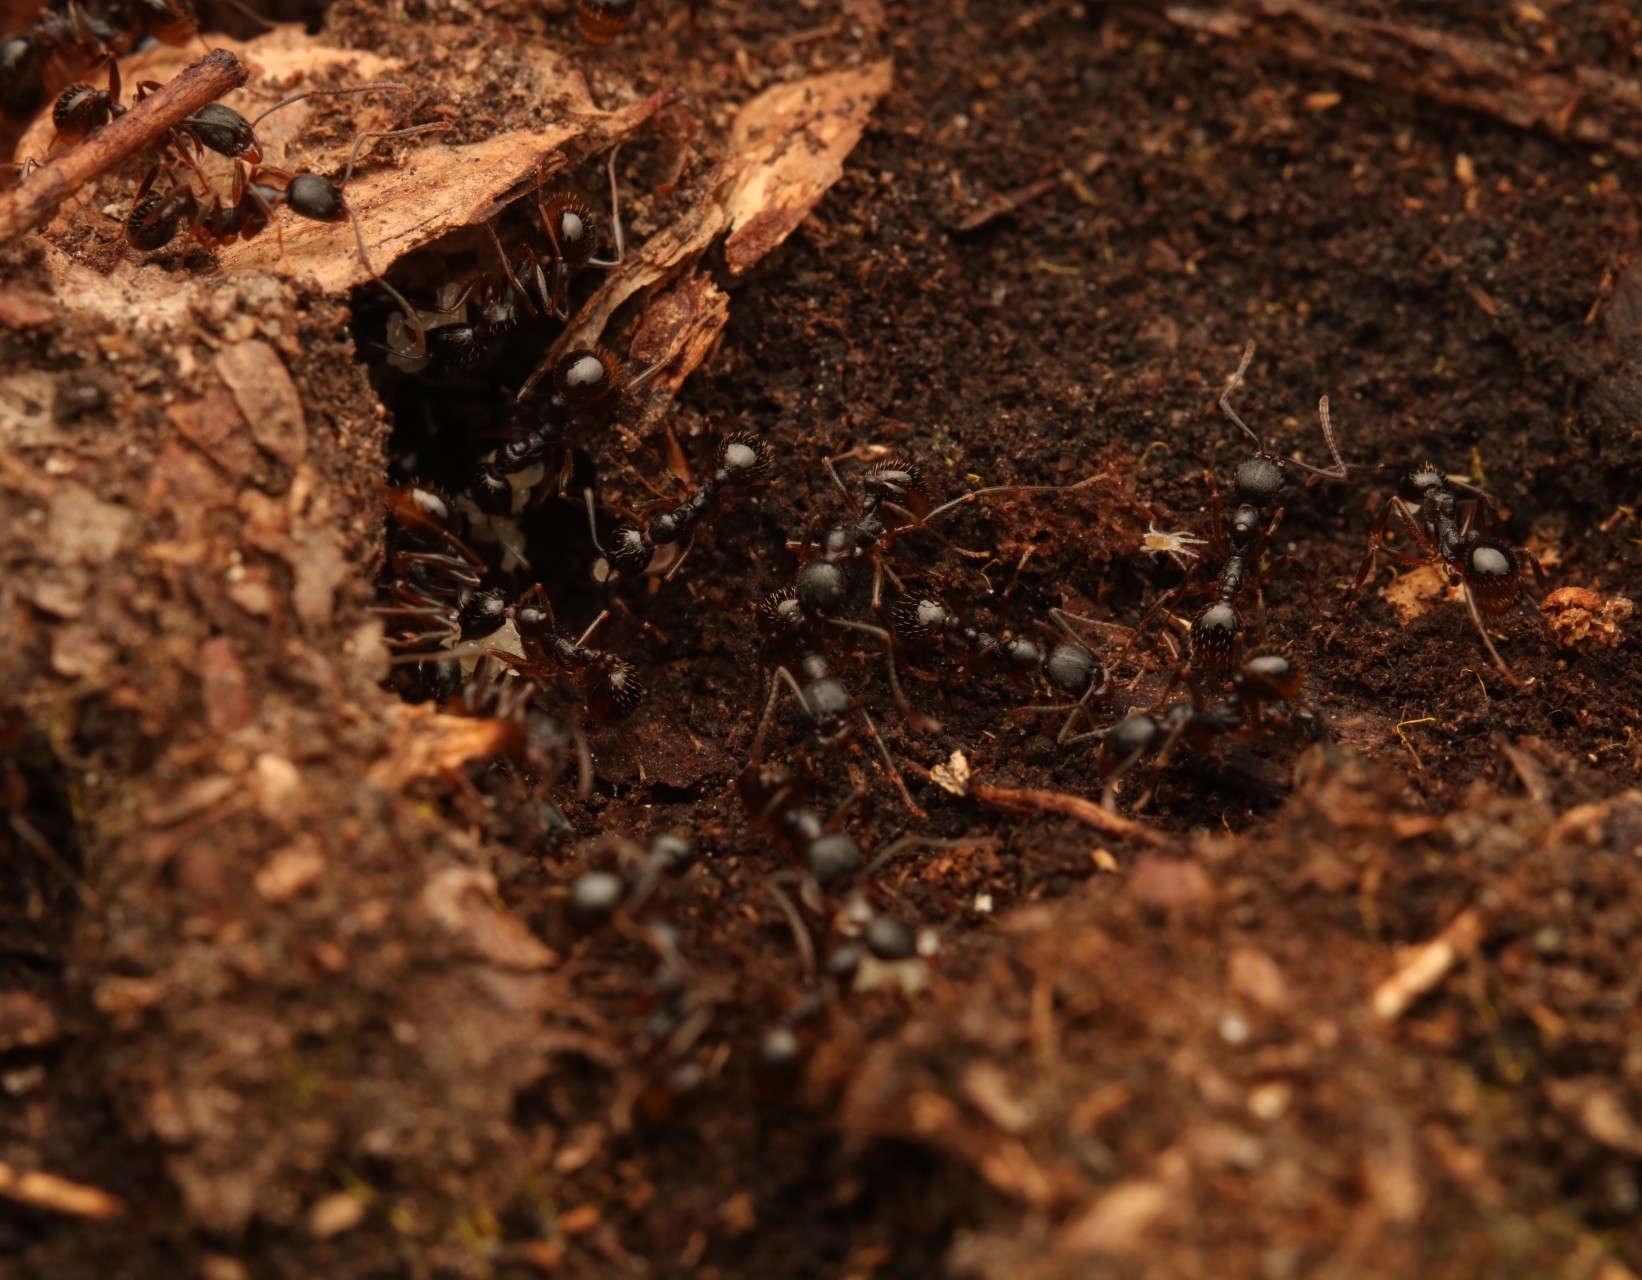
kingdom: Animalia
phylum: Arthropoda
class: Insecta
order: Hymenoptera
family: Formicidae
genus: Aphaenogaster
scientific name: Aphaenogaster picea
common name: Pitch-black collared ant
